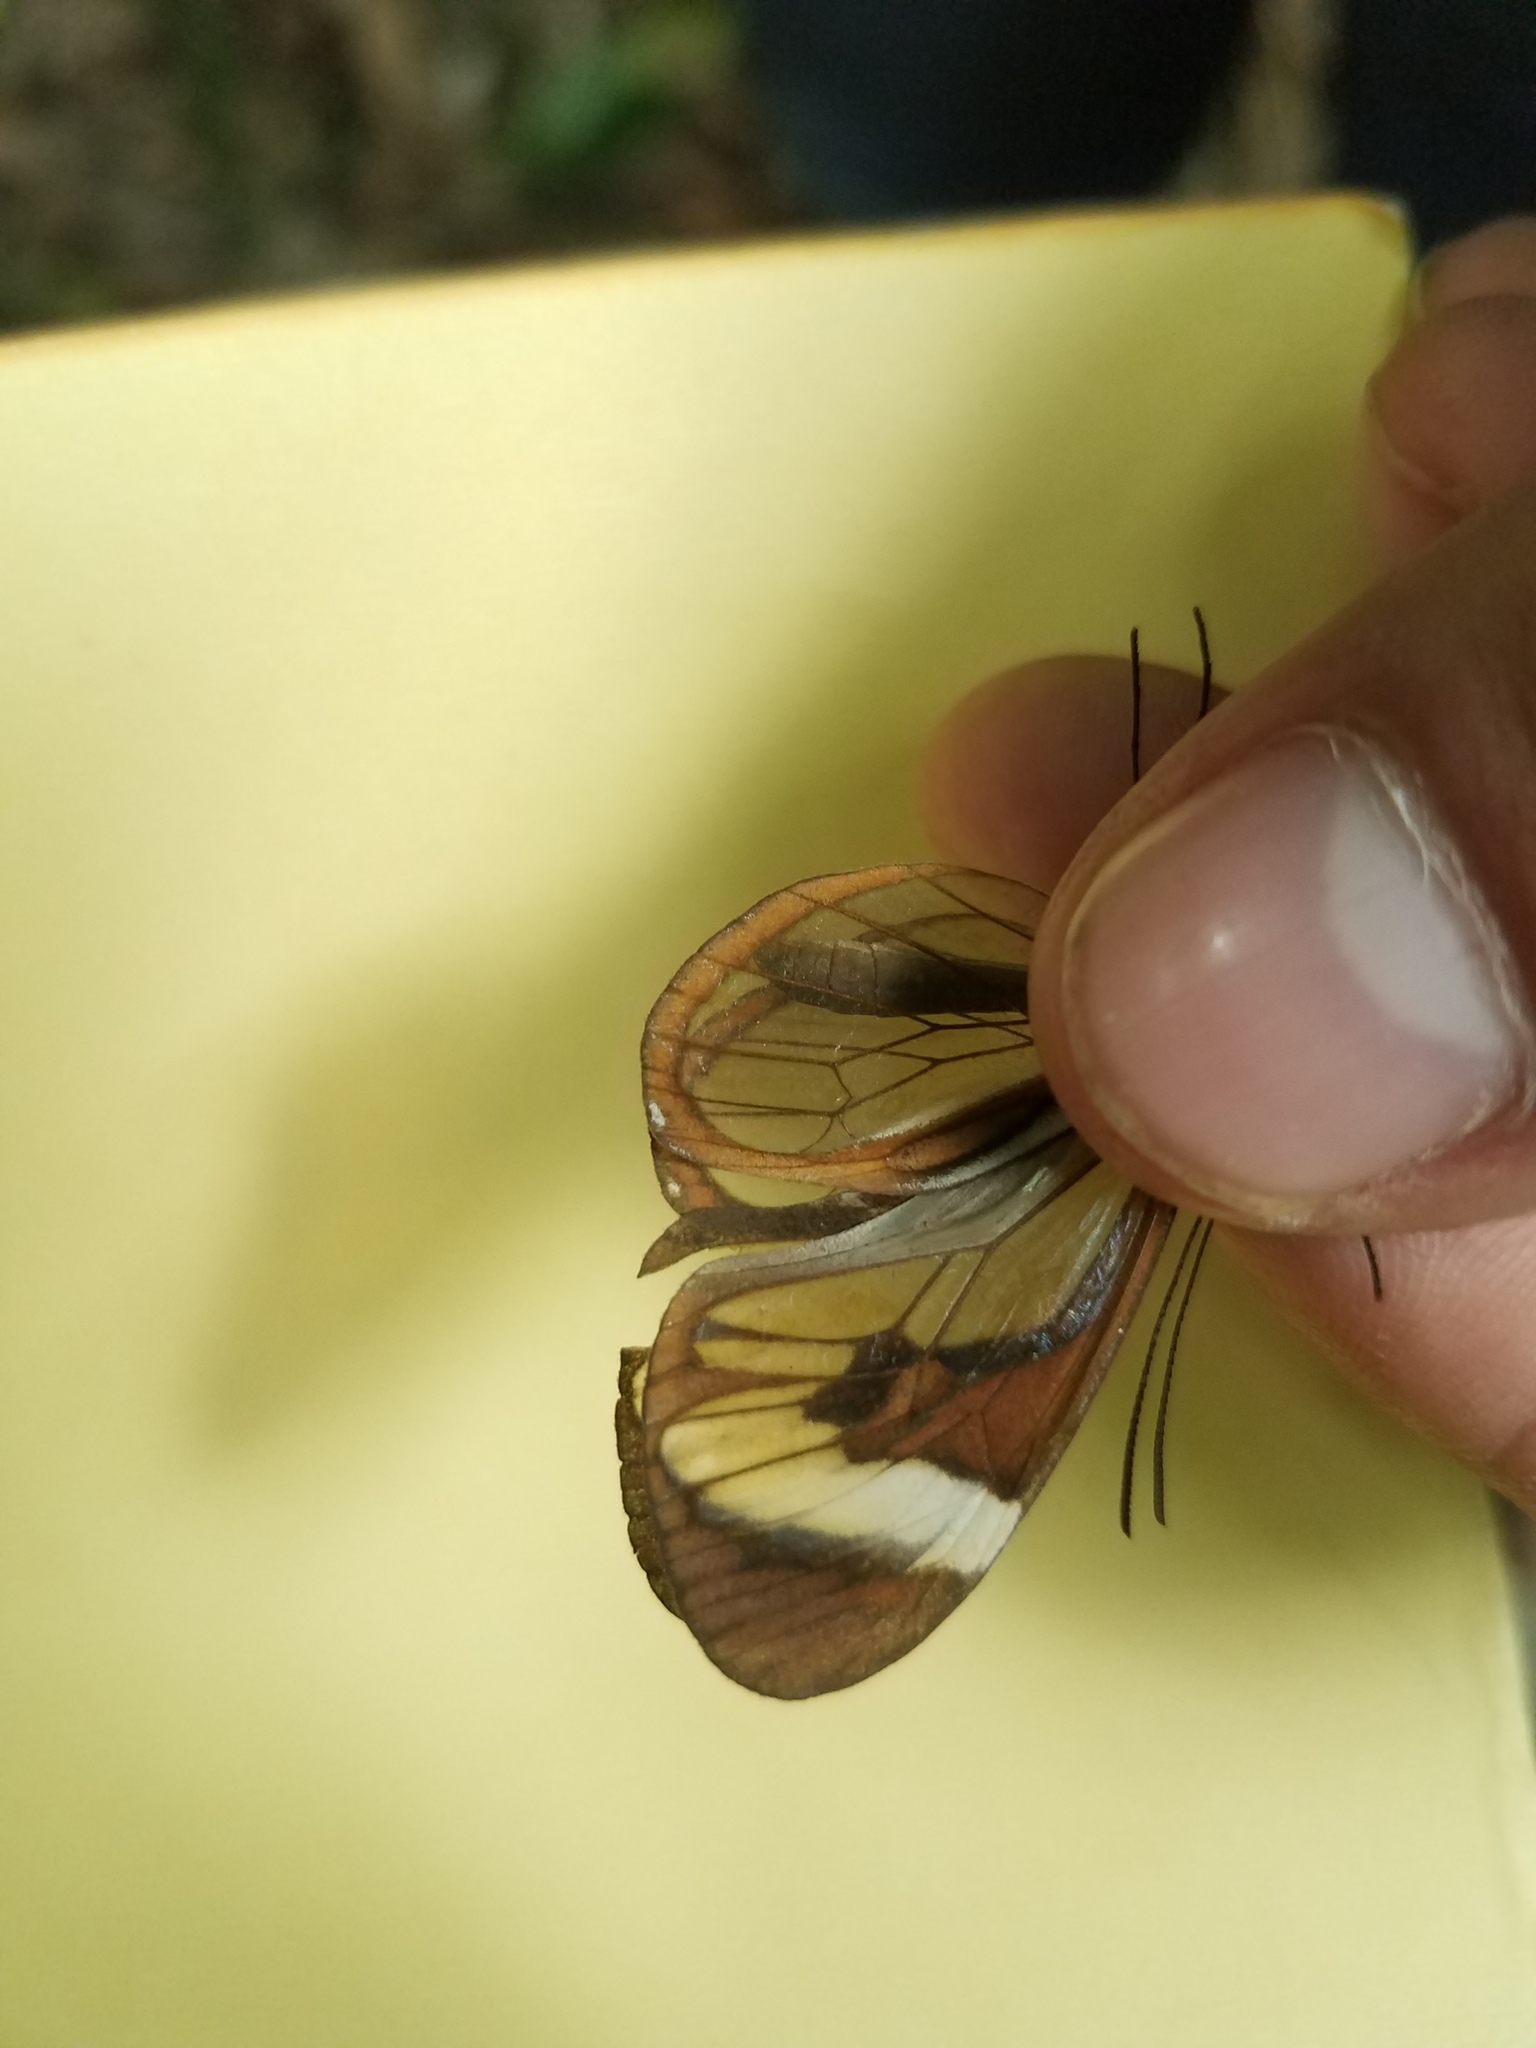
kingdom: Animalia
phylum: Arthropoda
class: Insecta
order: Lepidoptera
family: Nymphalidae
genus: Ithomia
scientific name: Ithomia patilla
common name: Patilla clearwing
